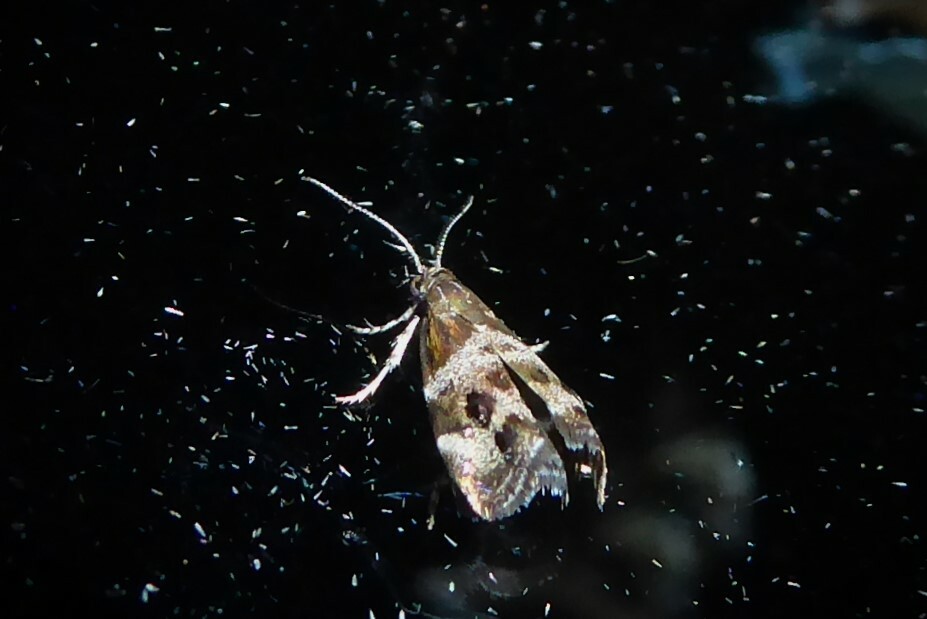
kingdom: Animalia
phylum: Arthropoda
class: Insecta
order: Lepidoptera
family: Choreutidae
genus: Tebenna
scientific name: Tebenna micalis
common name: Vagrant twitcher
